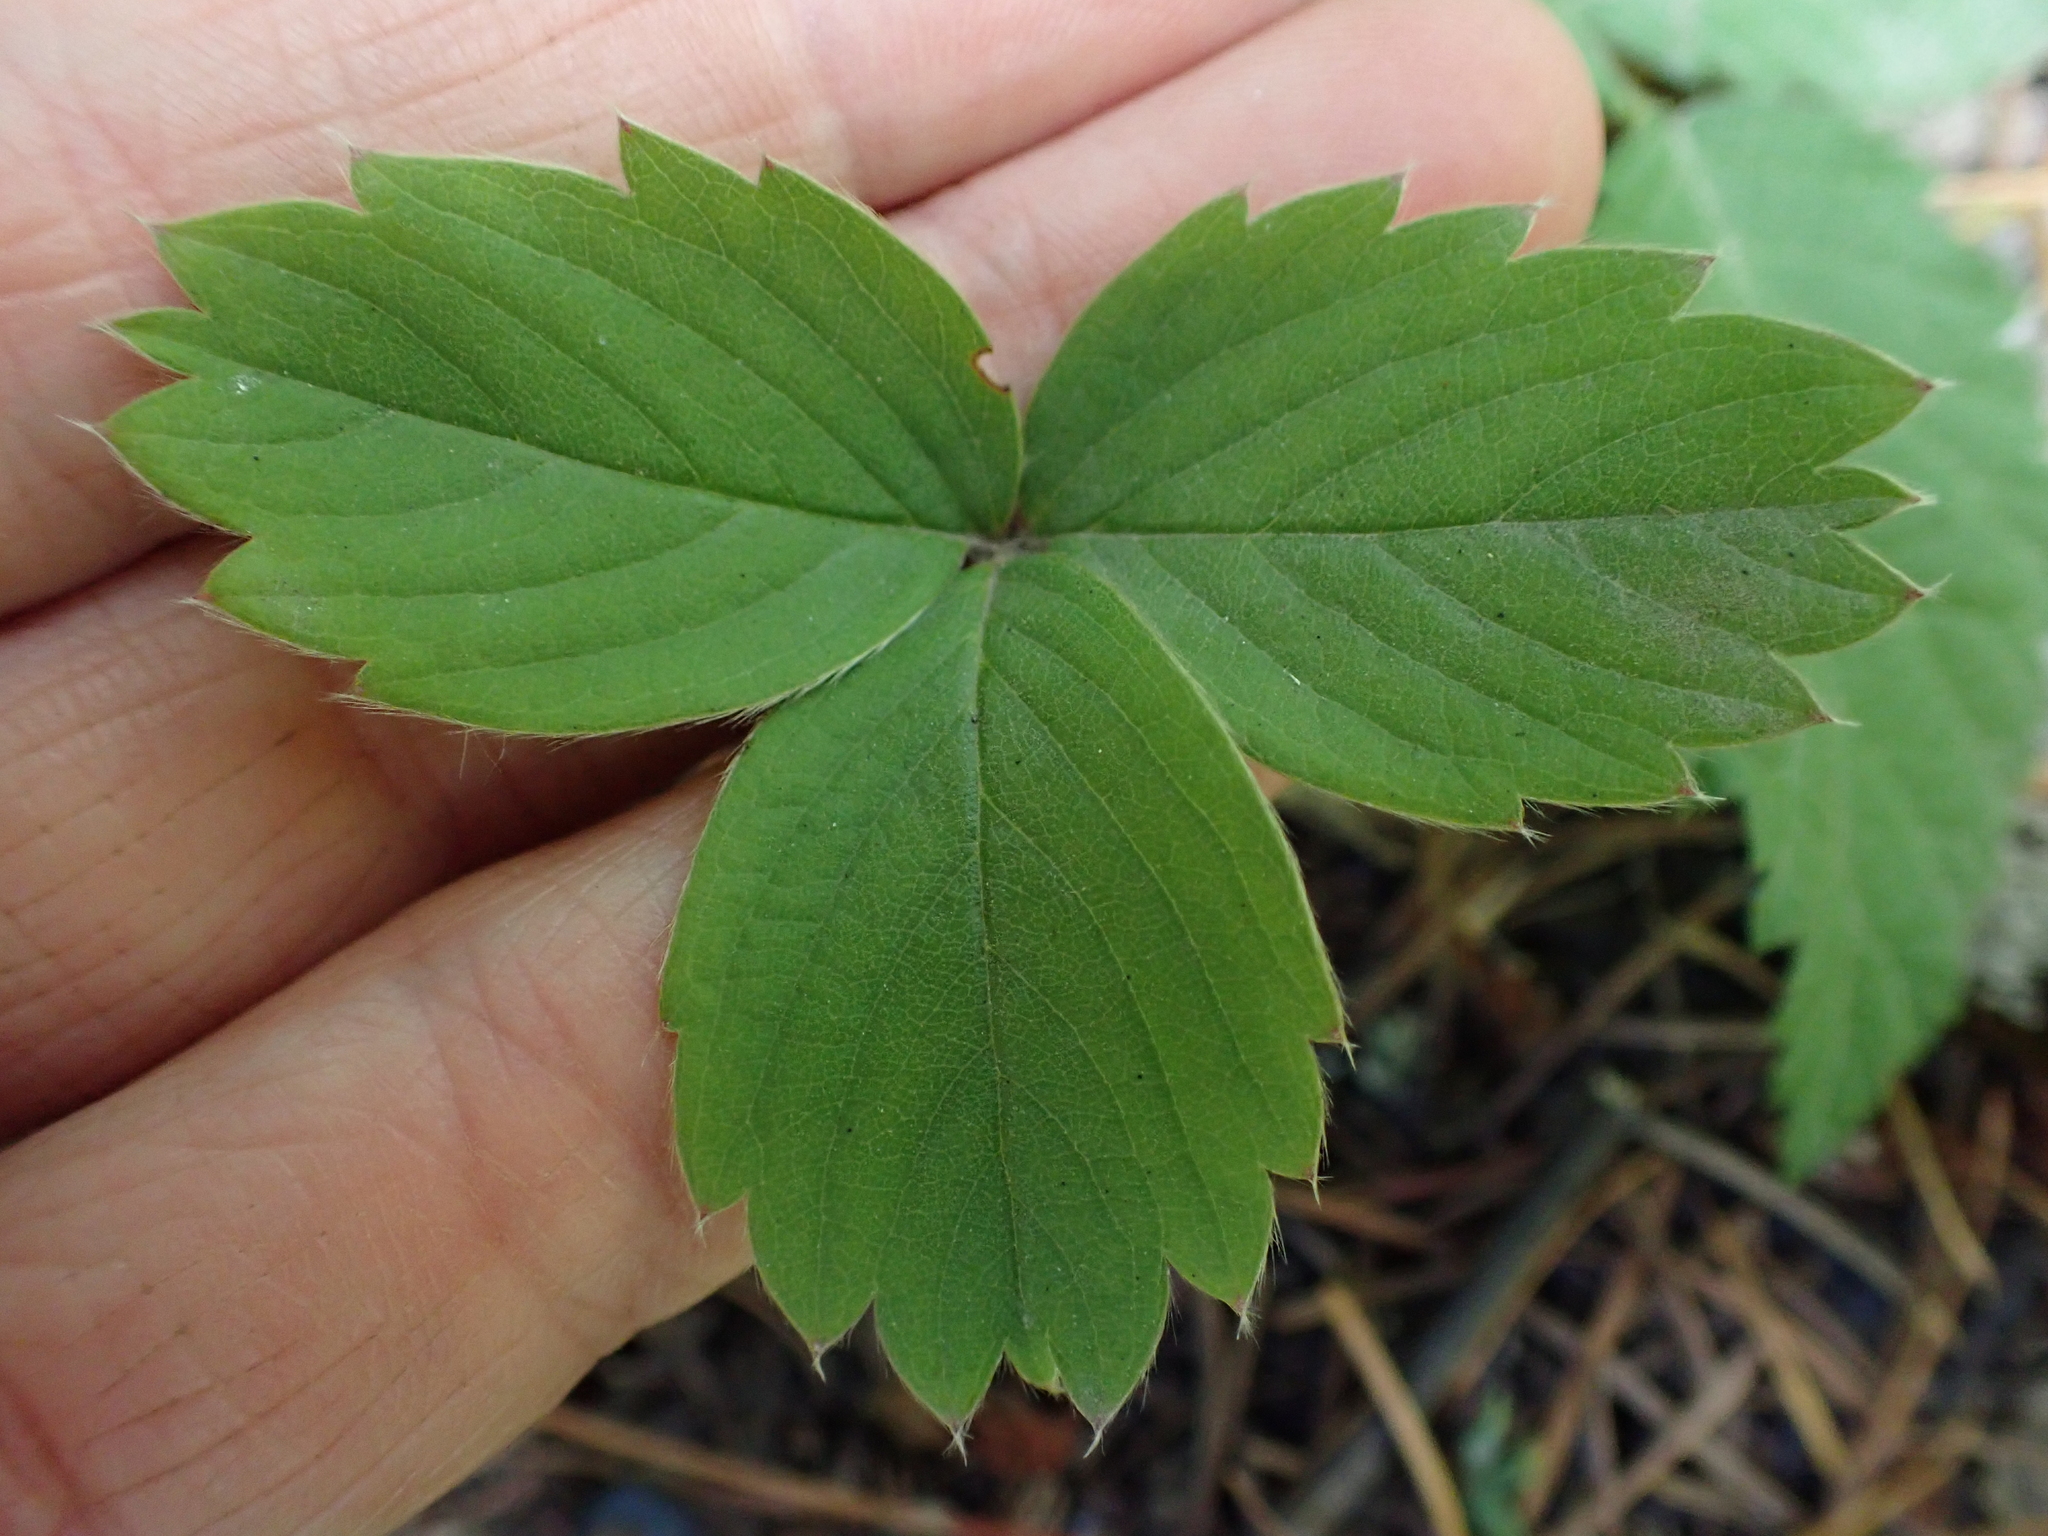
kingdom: Plantae
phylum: Tracheophyta
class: Magnoliopsida
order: Rosales
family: Rosaceae
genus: Fragaria
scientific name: Fragaria virginiana
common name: Thickleaved wild strawberry
